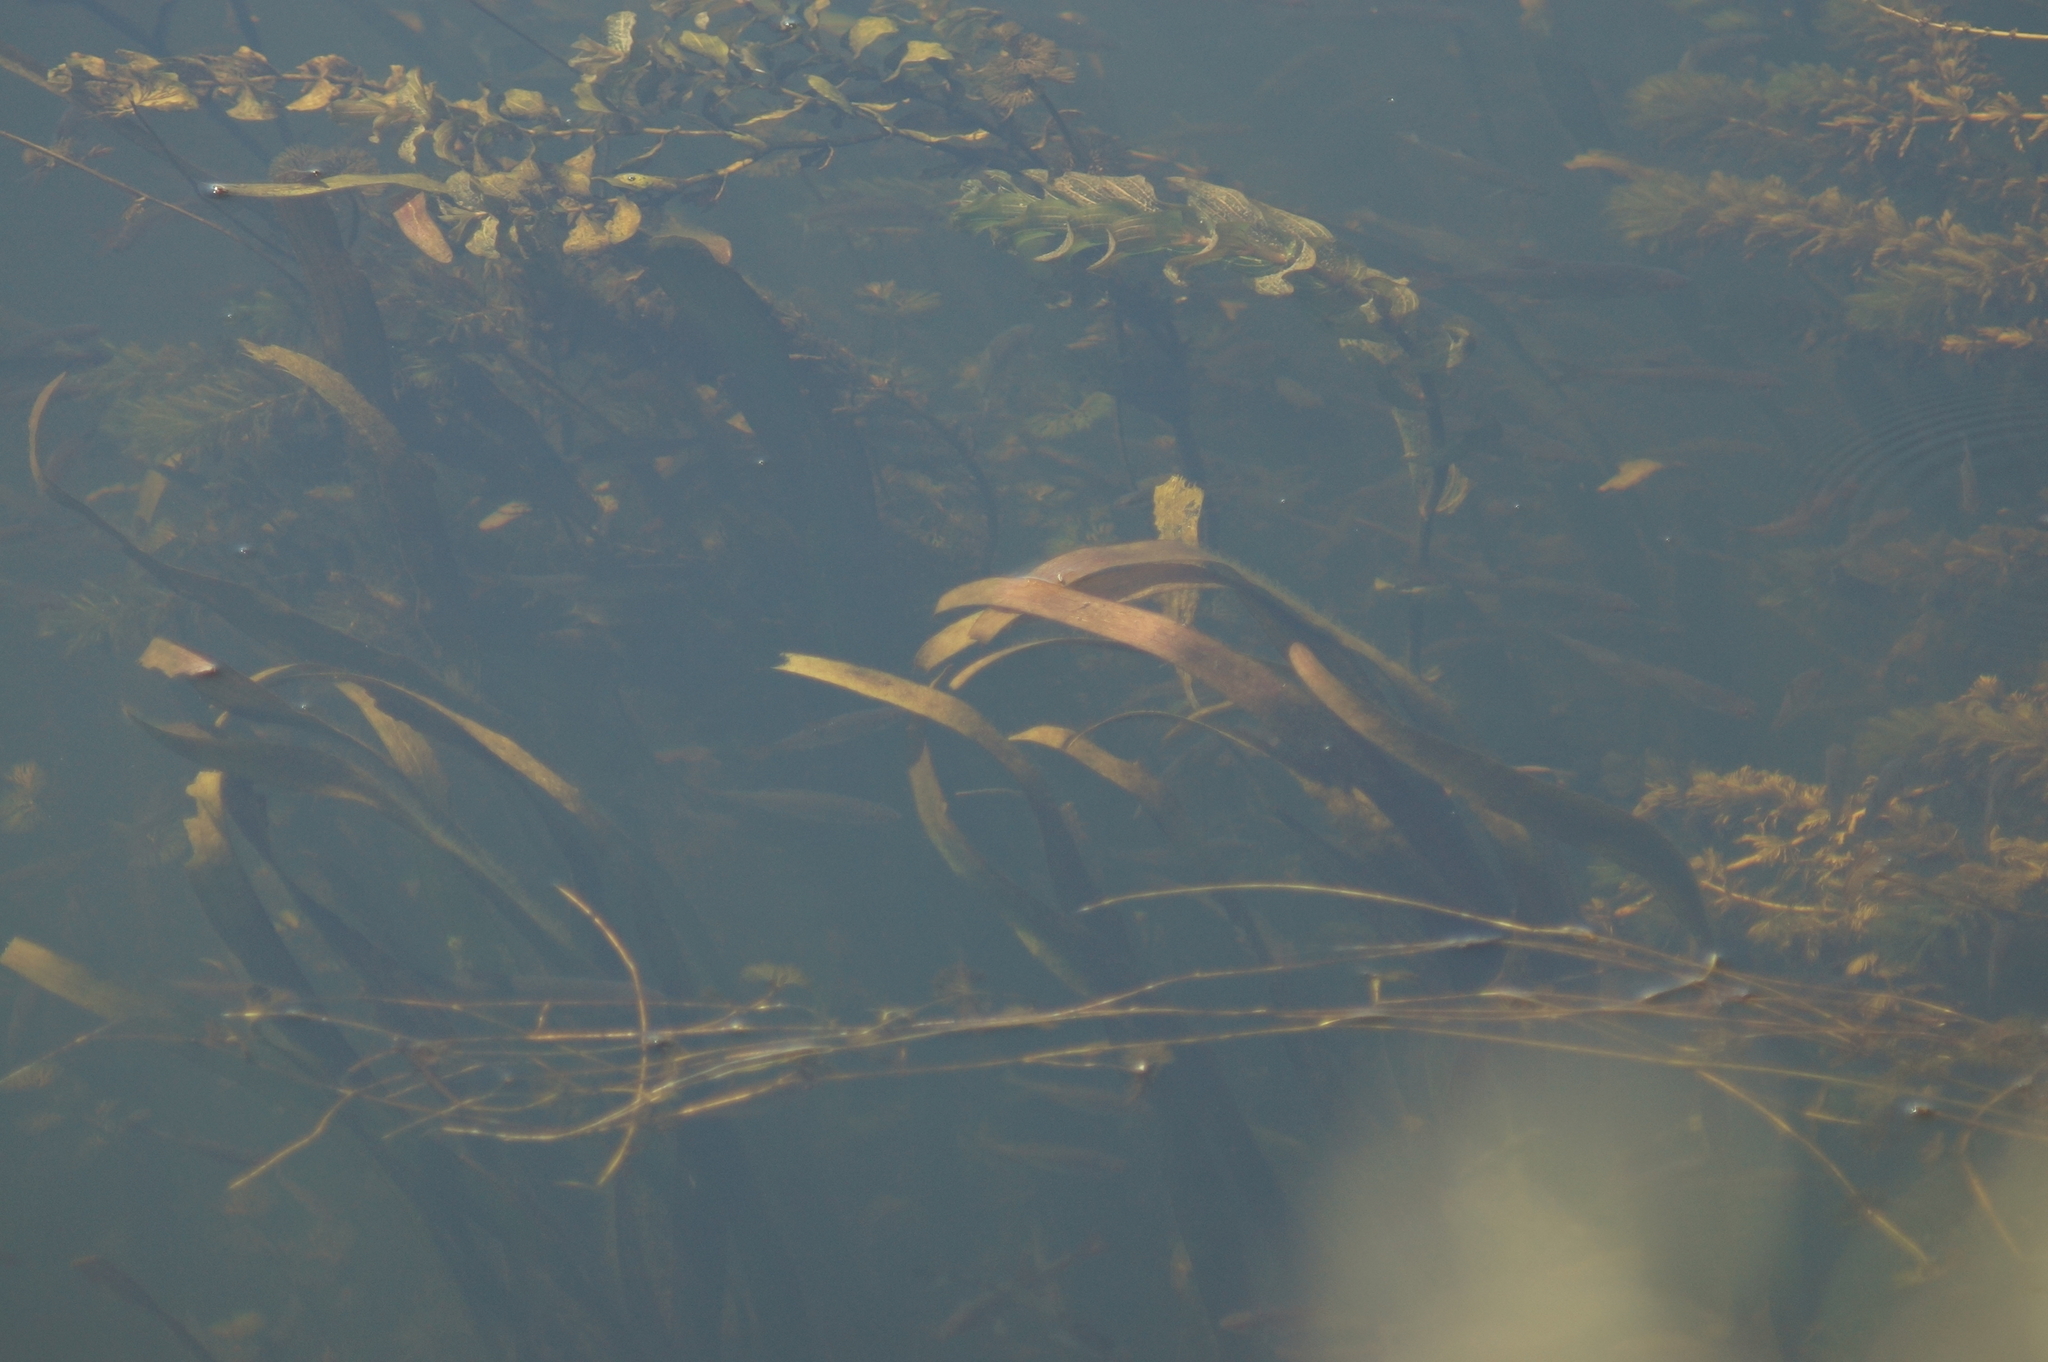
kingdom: Plantae
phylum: Tracheophyta
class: Liliopsida
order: Alismatales
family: Potamogetonaceae
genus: Potamogeton
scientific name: Potamogeton perfoliatus
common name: Perfoliate pondweed
